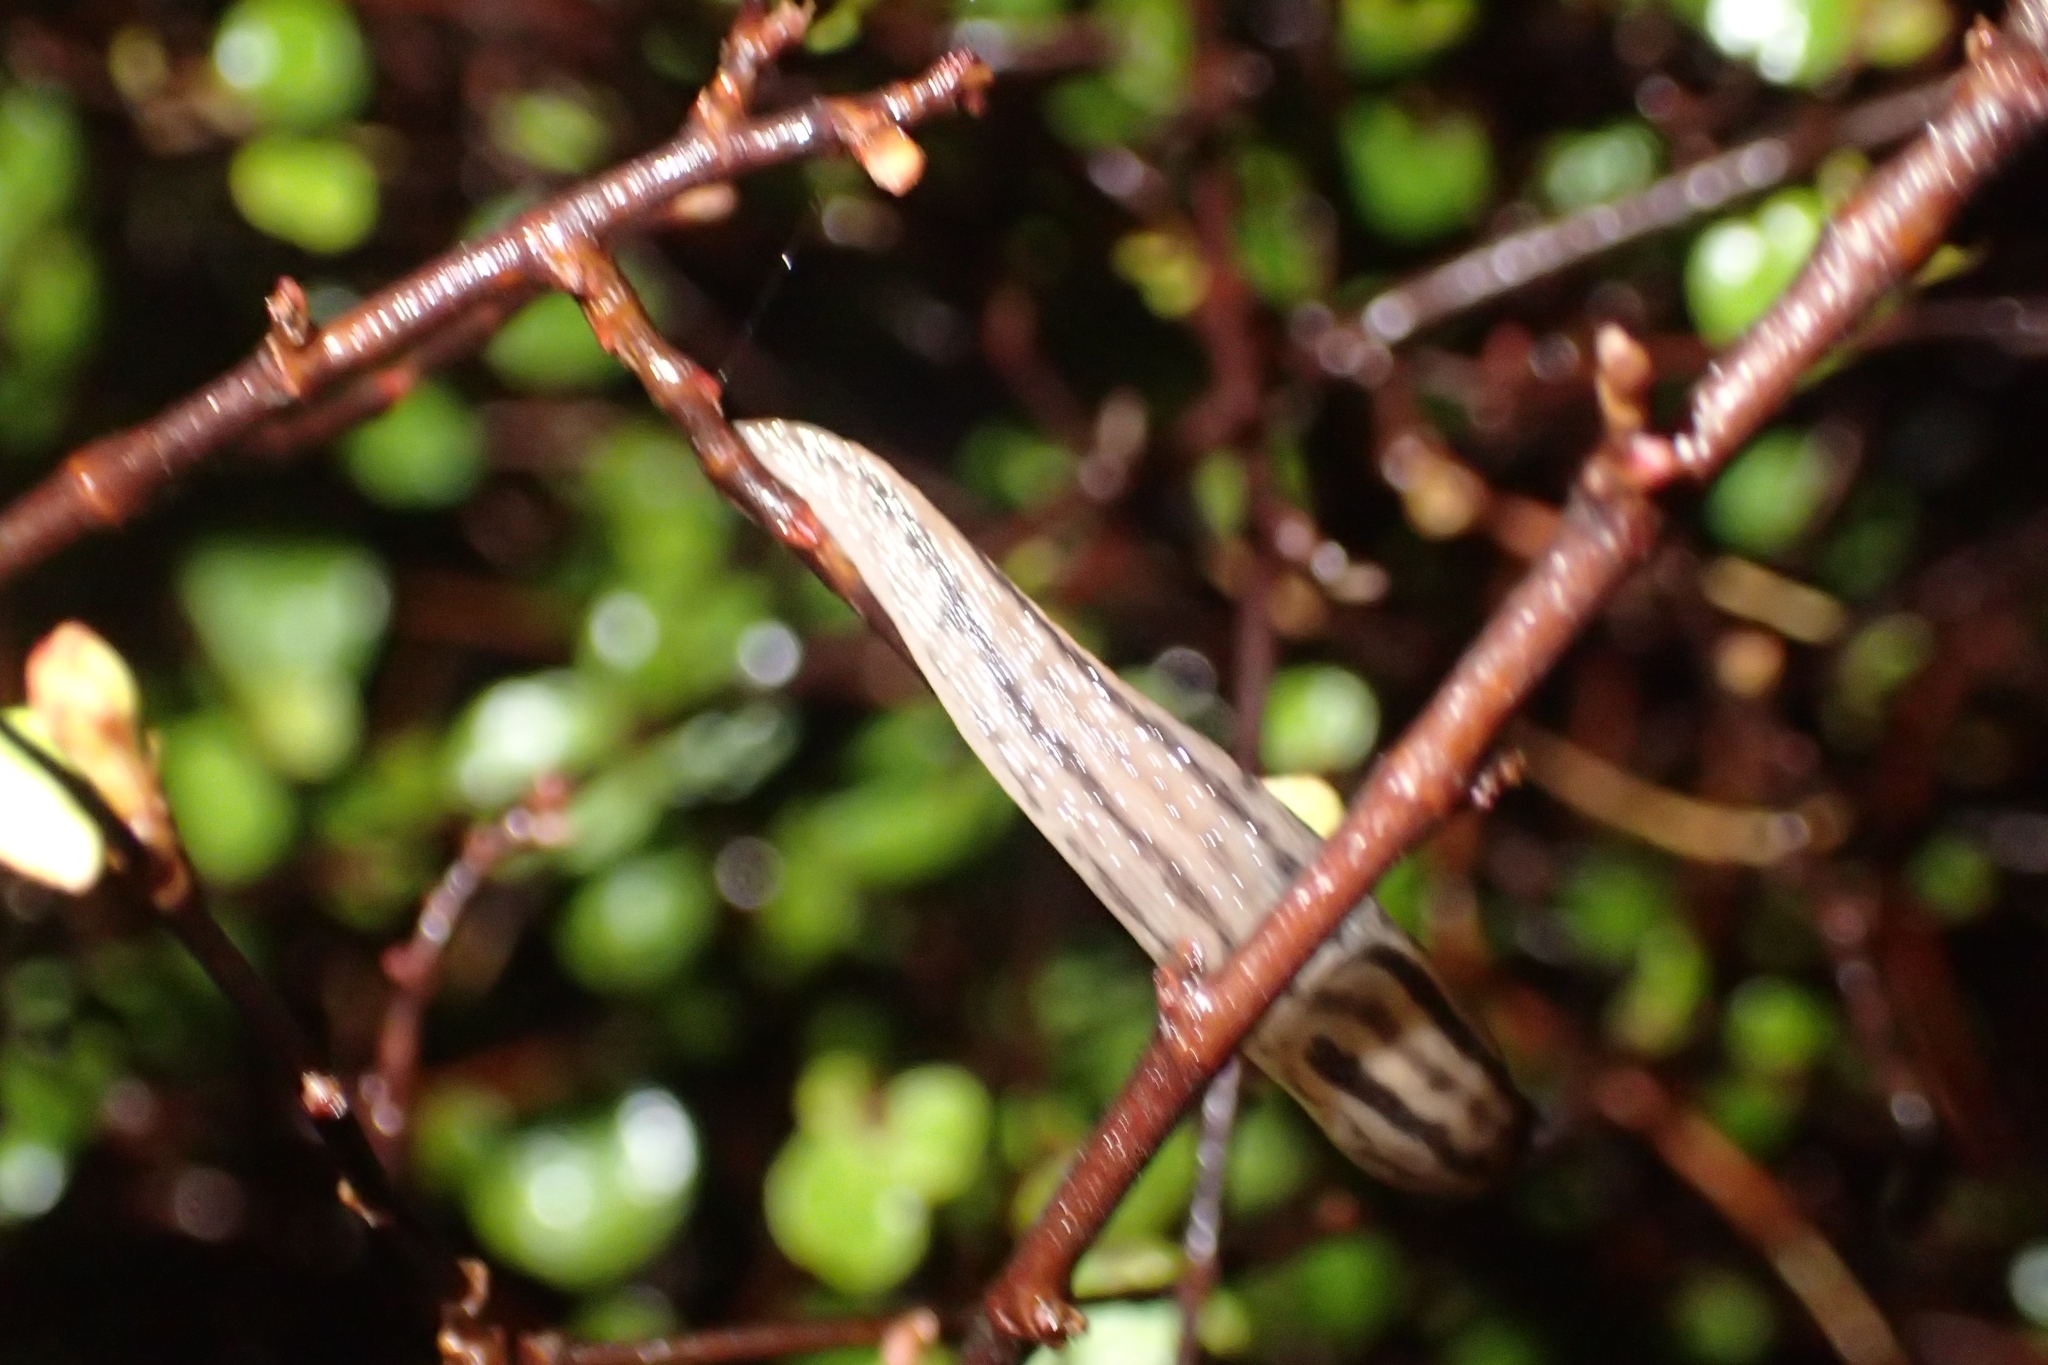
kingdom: Animalia
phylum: Mollusca
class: Gastropoda
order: Stylommatophora
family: Limacidae
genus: Ambigolimax
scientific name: Ambigolimax
